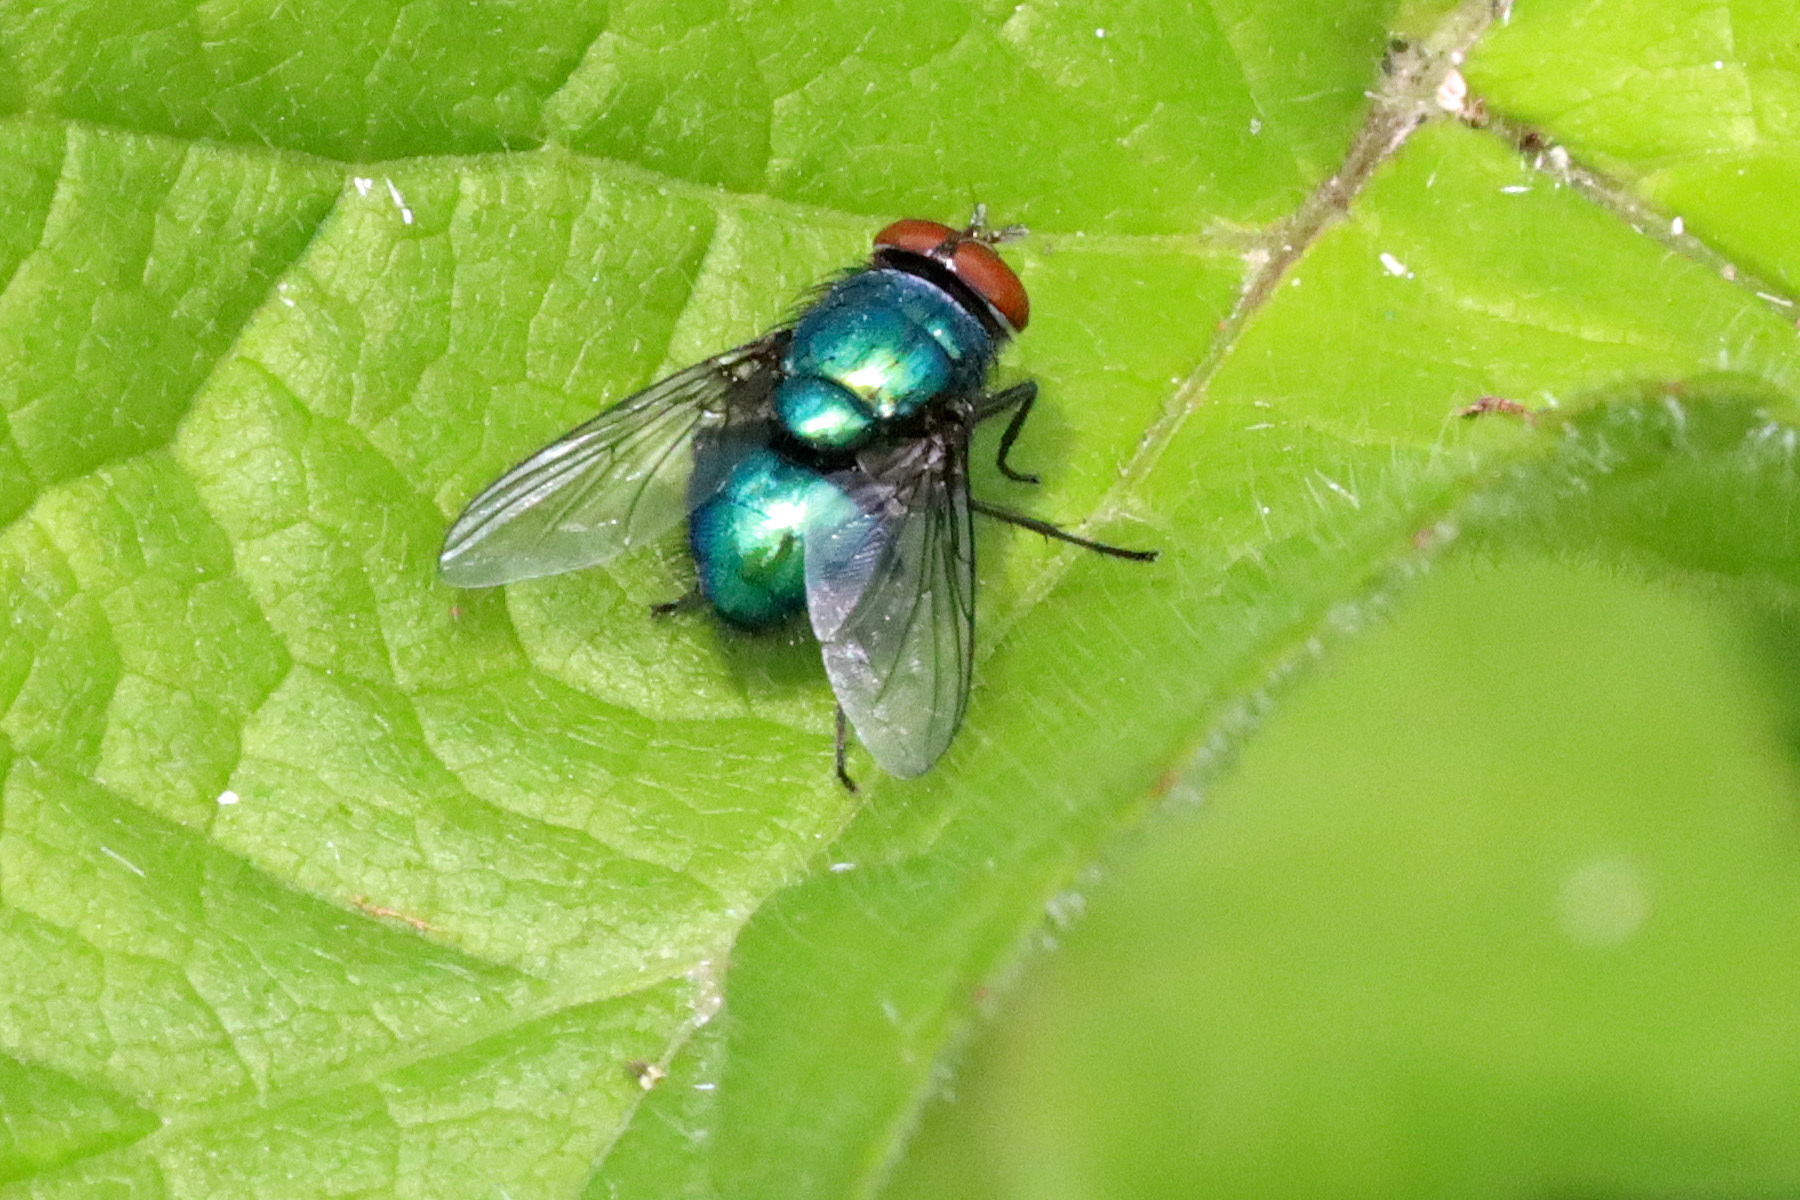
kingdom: Animalia
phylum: Arthropoda
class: Insecta
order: Diptera
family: Calliphoridae
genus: Lucilia
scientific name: Lucilia
